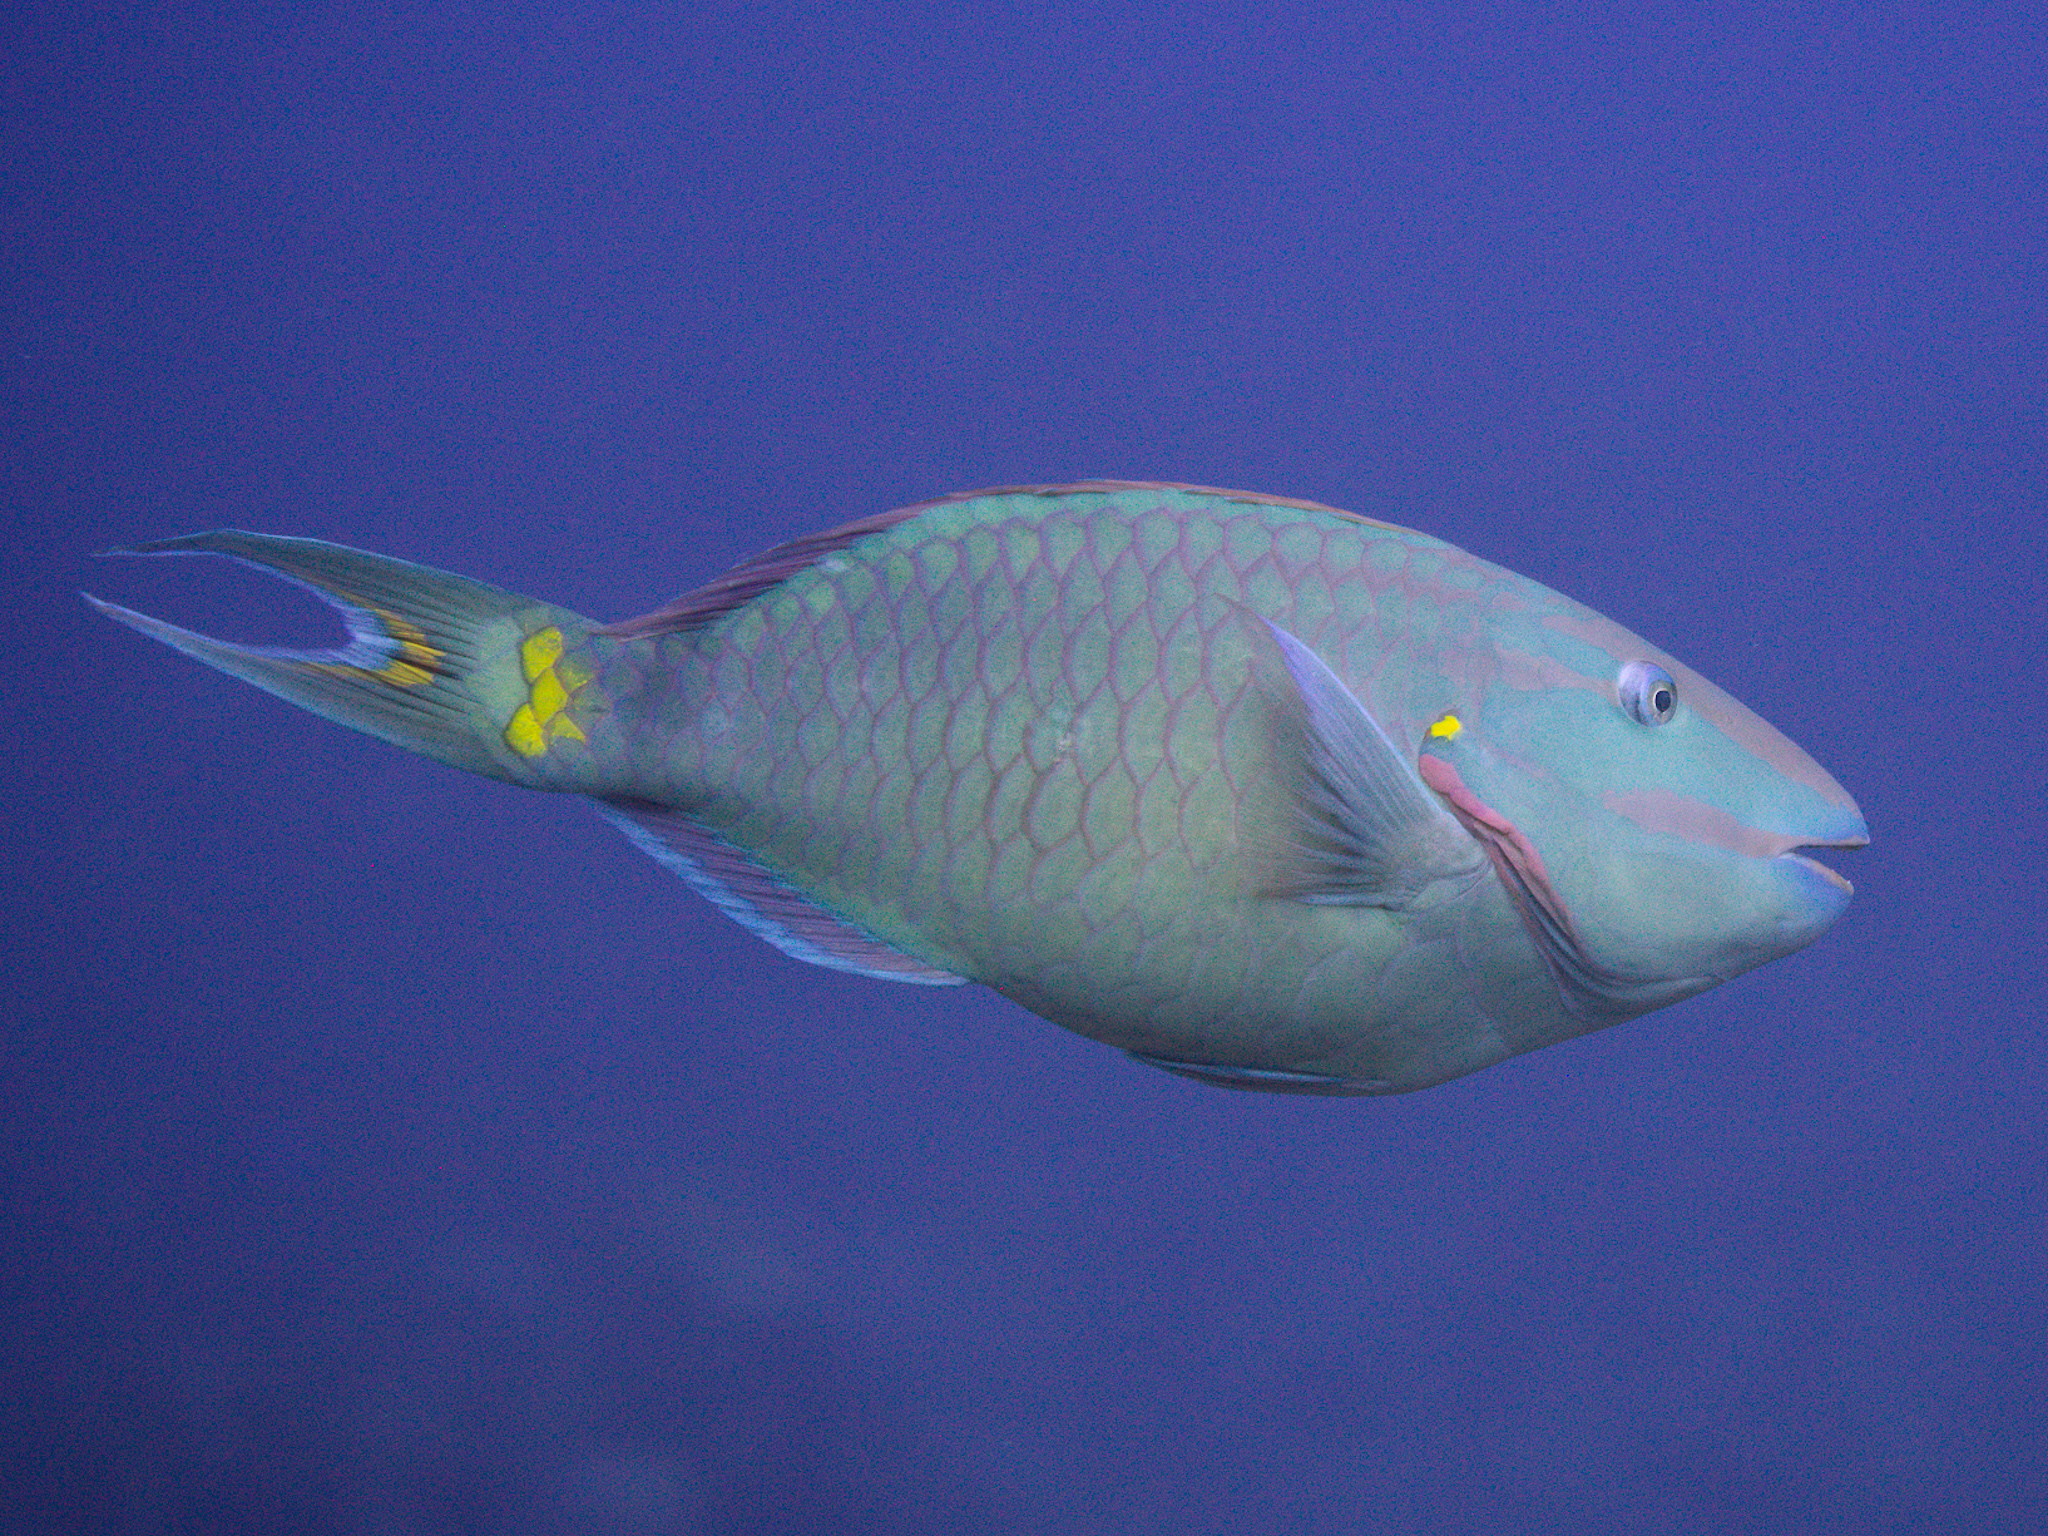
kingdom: Animalia
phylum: Chordata
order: Perciformes
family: Scaridae
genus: Sparisoma
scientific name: Sparisoma viride
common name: Stoplight parrotfish
